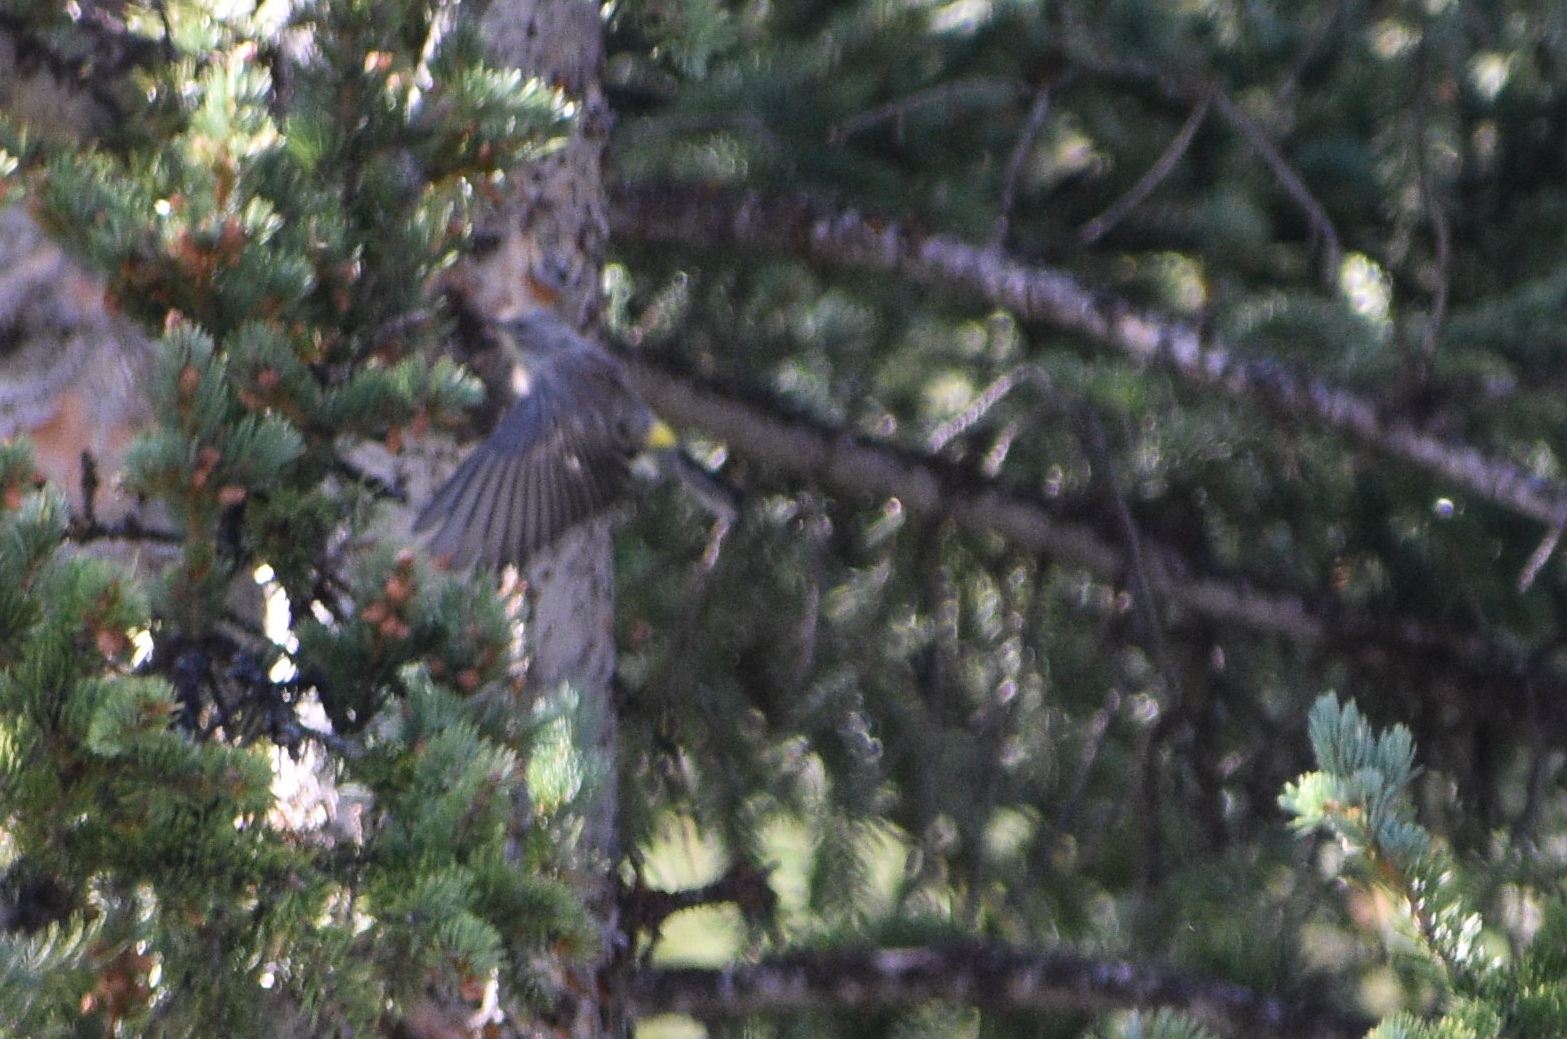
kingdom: Animalia
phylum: Chordata
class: Aves
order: Passeriformes
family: Parulidae
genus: Setophaga
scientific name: Setophaga coronata
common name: Myrtle warbler
